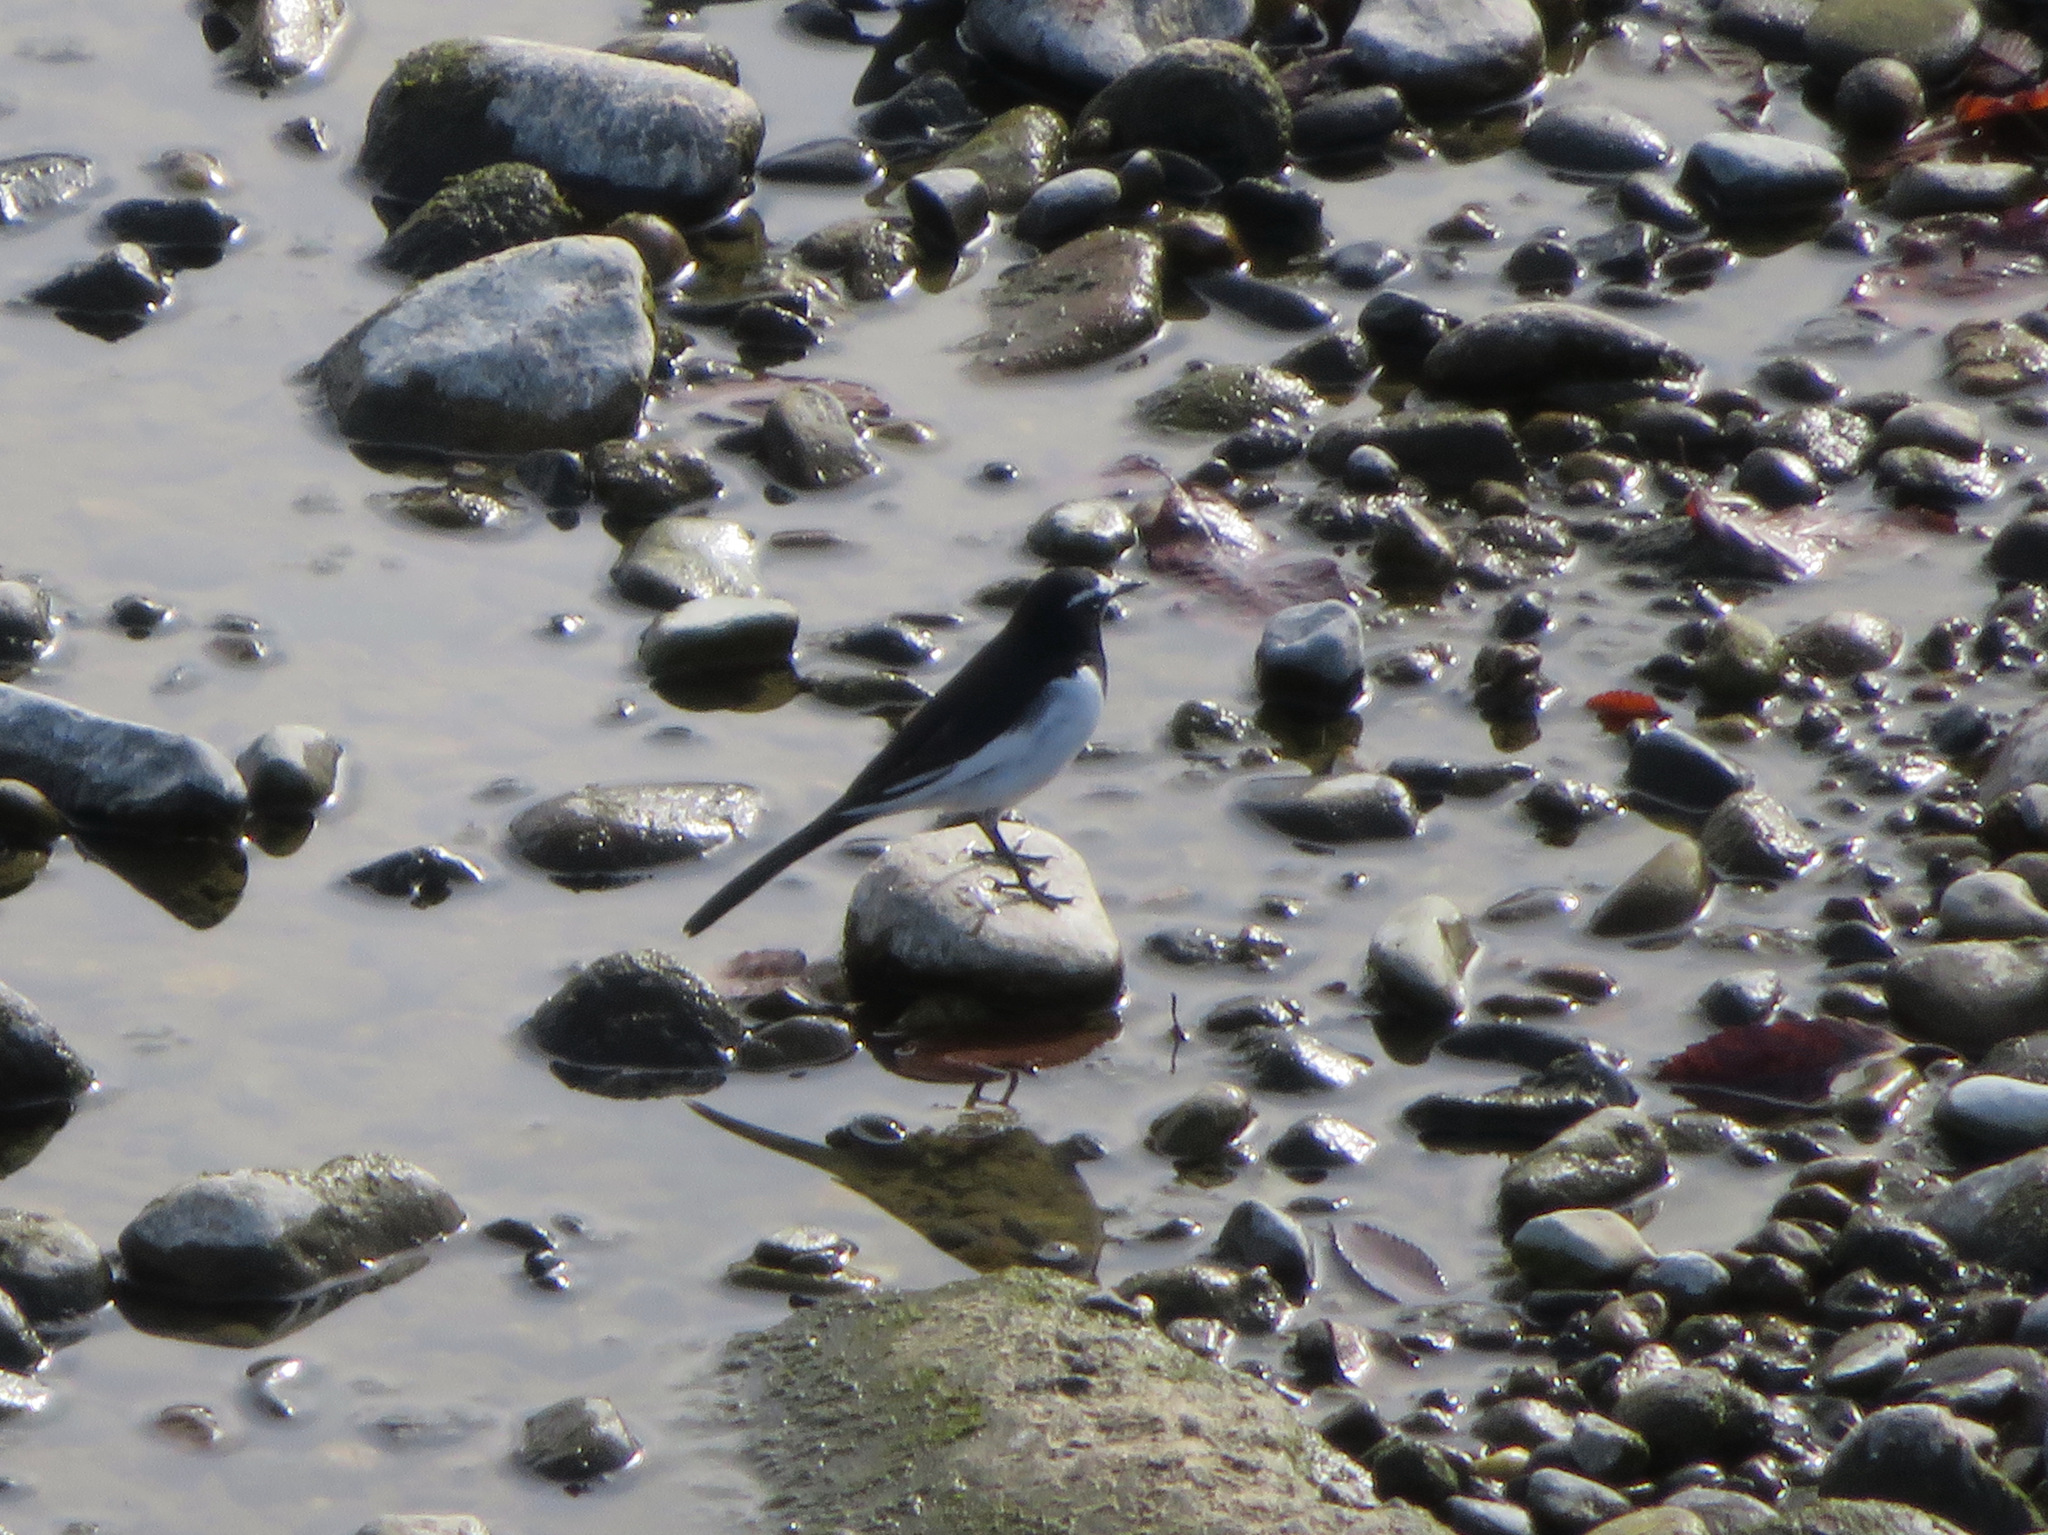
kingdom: Animalia
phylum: Chordata
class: Aves
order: Passeriformes
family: Motacillidae
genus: Motacilla
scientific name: Motacilla grandis
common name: Japanese wagtail
